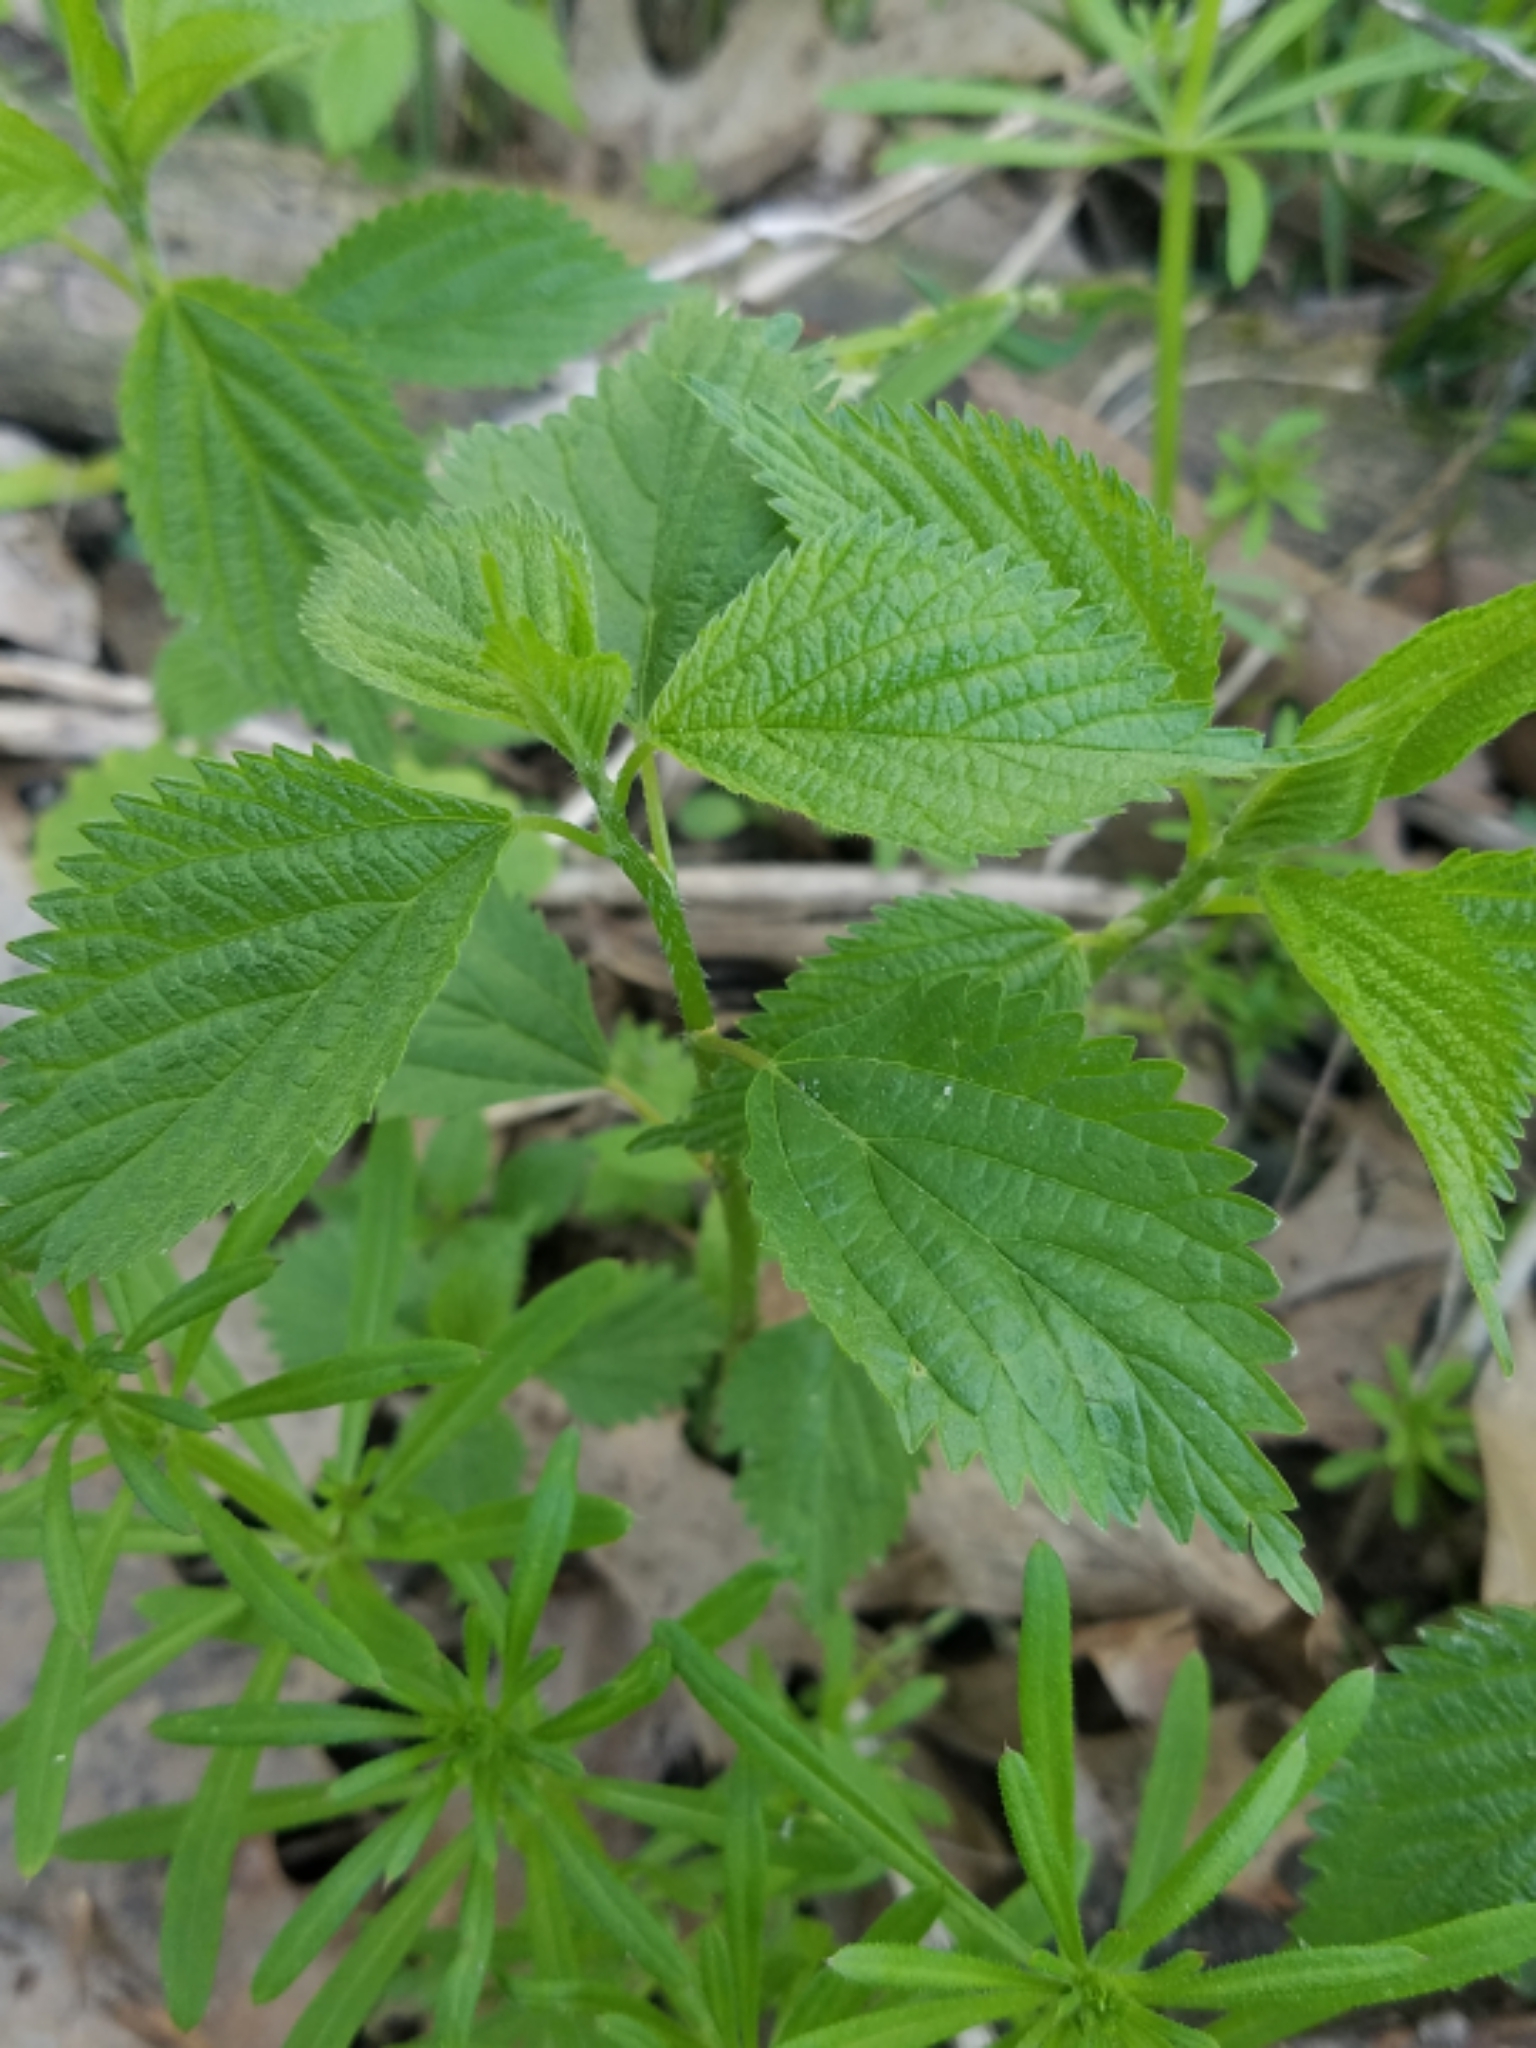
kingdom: Plantae
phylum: Tracheophyta
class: Magnoliopsida
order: Rosales
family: Urticaceae
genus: Laportea
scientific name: Laportea canadensis
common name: Canada nettle
